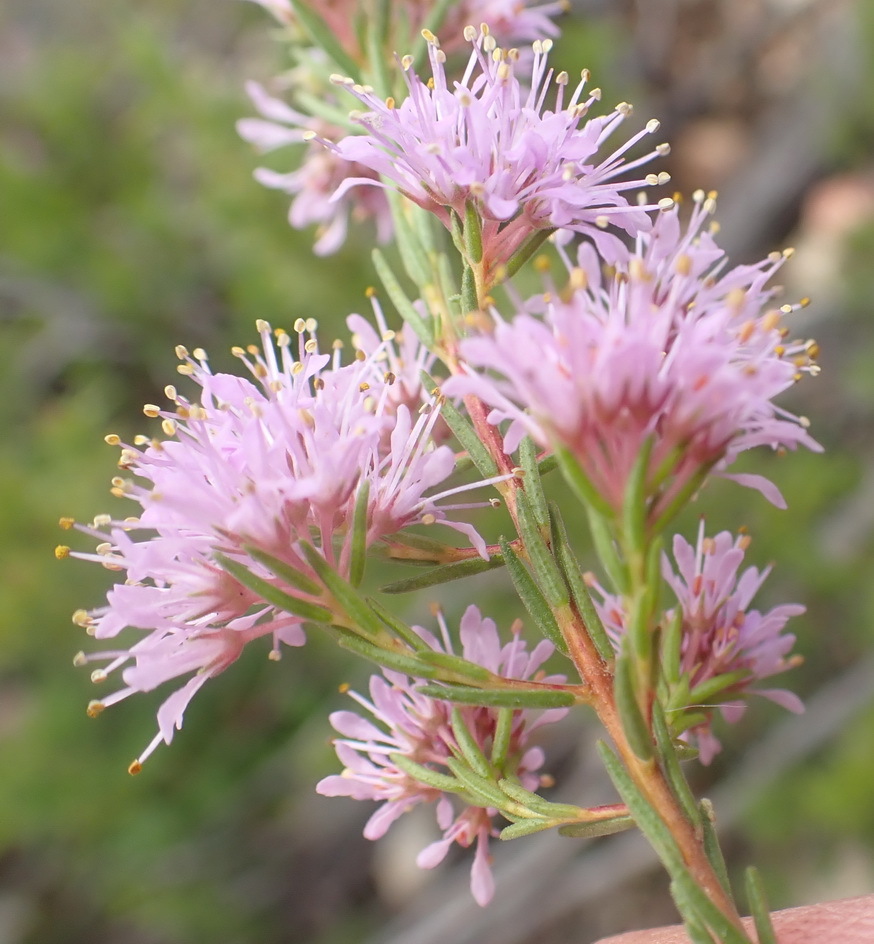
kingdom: Plantae
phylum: Tracheophyta
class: Magnoliopsida
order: Sapindales
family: Rutaceae
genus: Agathosma
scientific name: Agathosma
